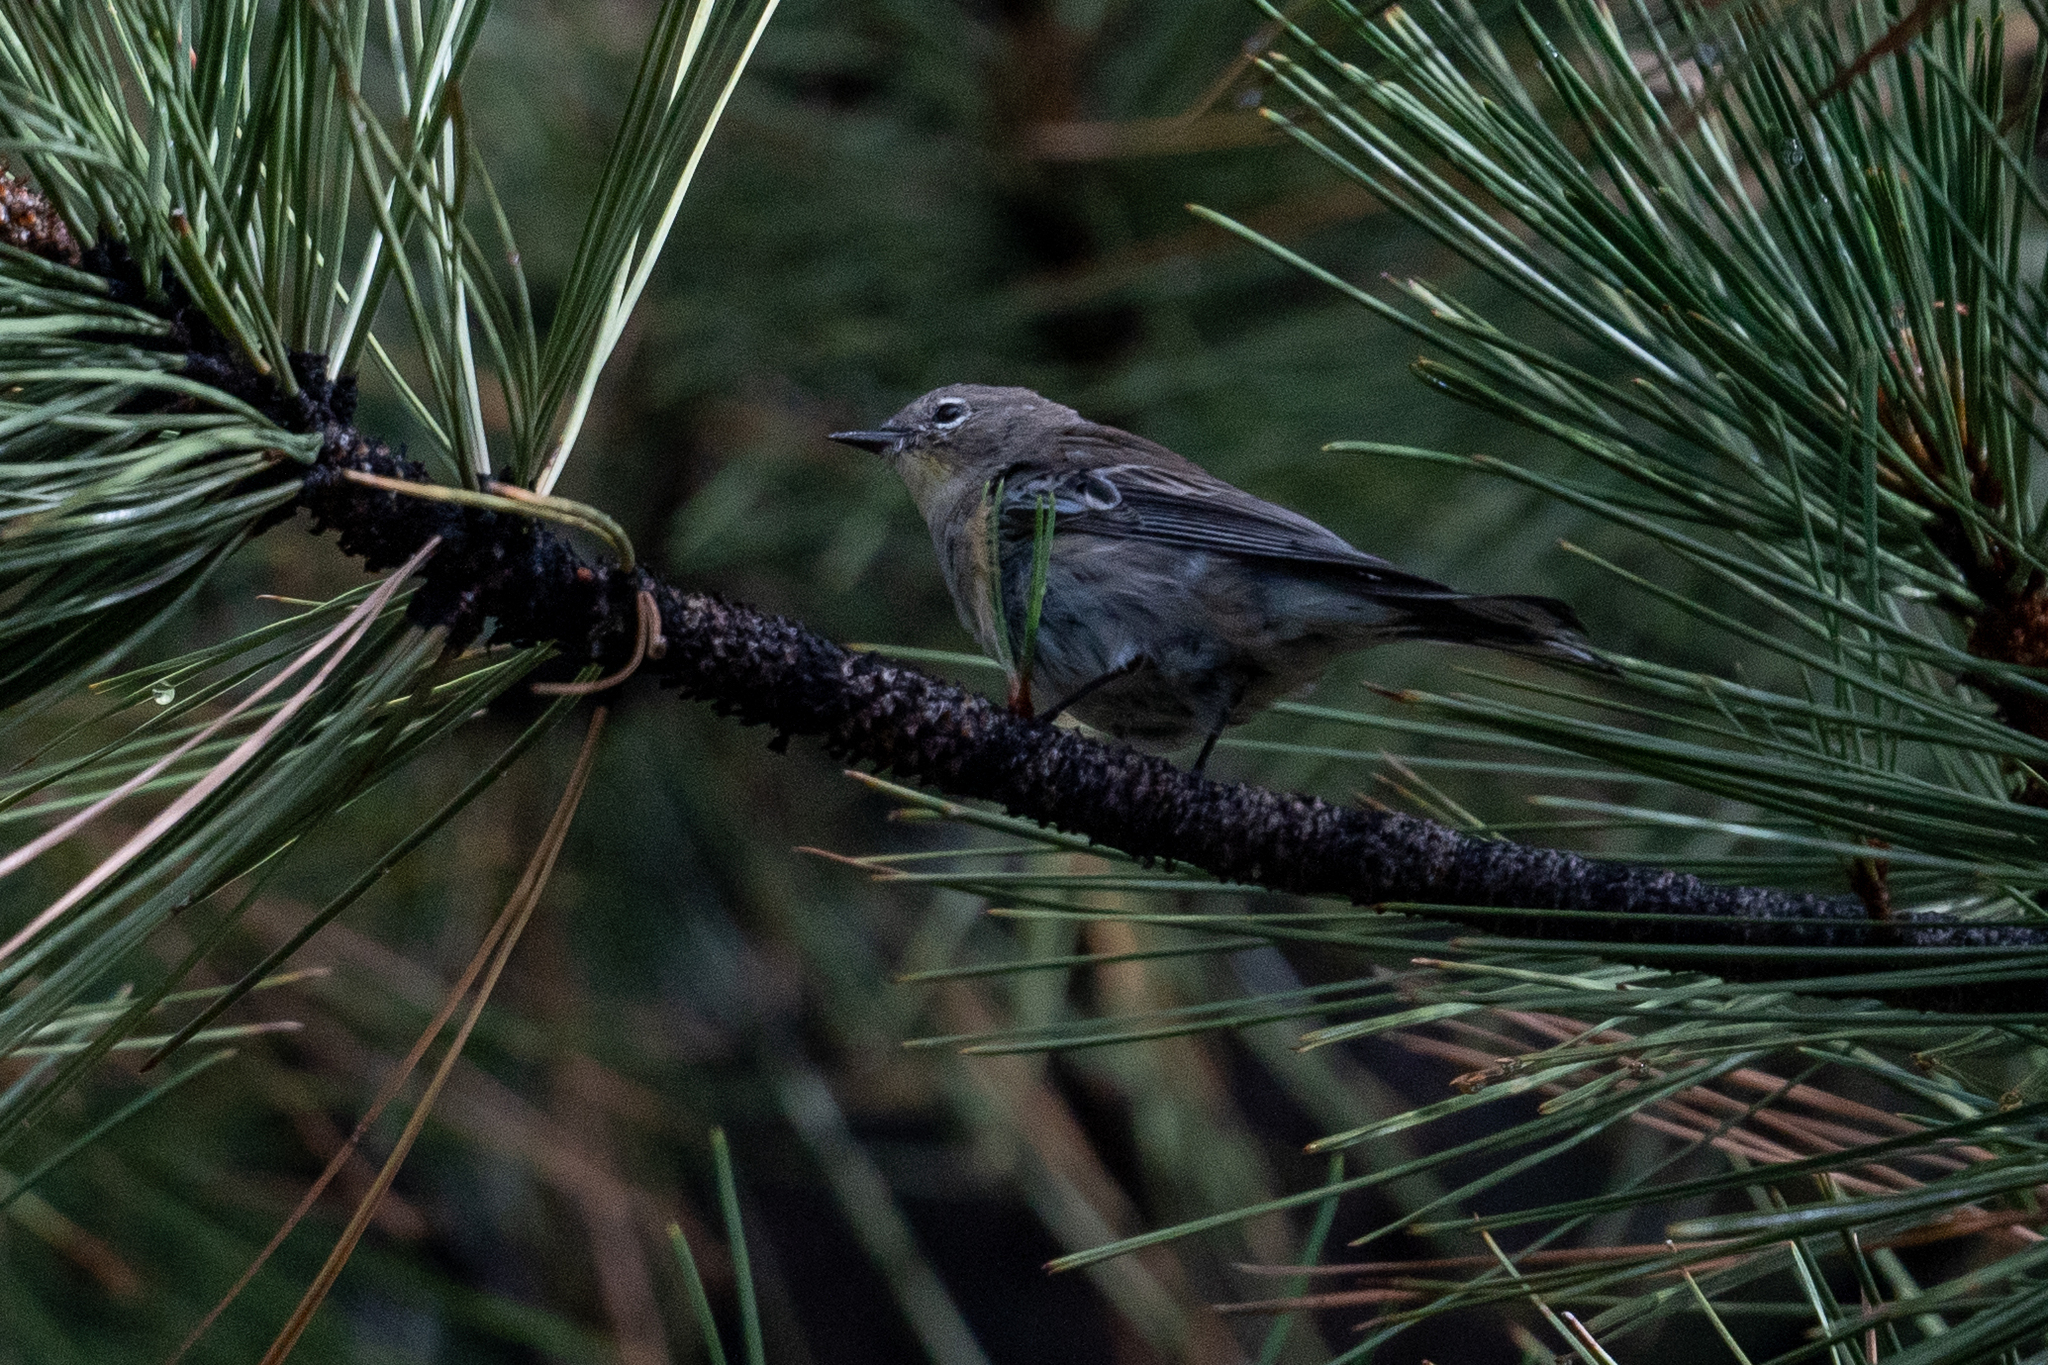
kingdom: Animalia
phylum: Chordata
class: Aves
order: Passeriformes
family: Parulidae
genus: Setophaga
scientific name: Setophaga coronata
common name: Myrtle warbler
